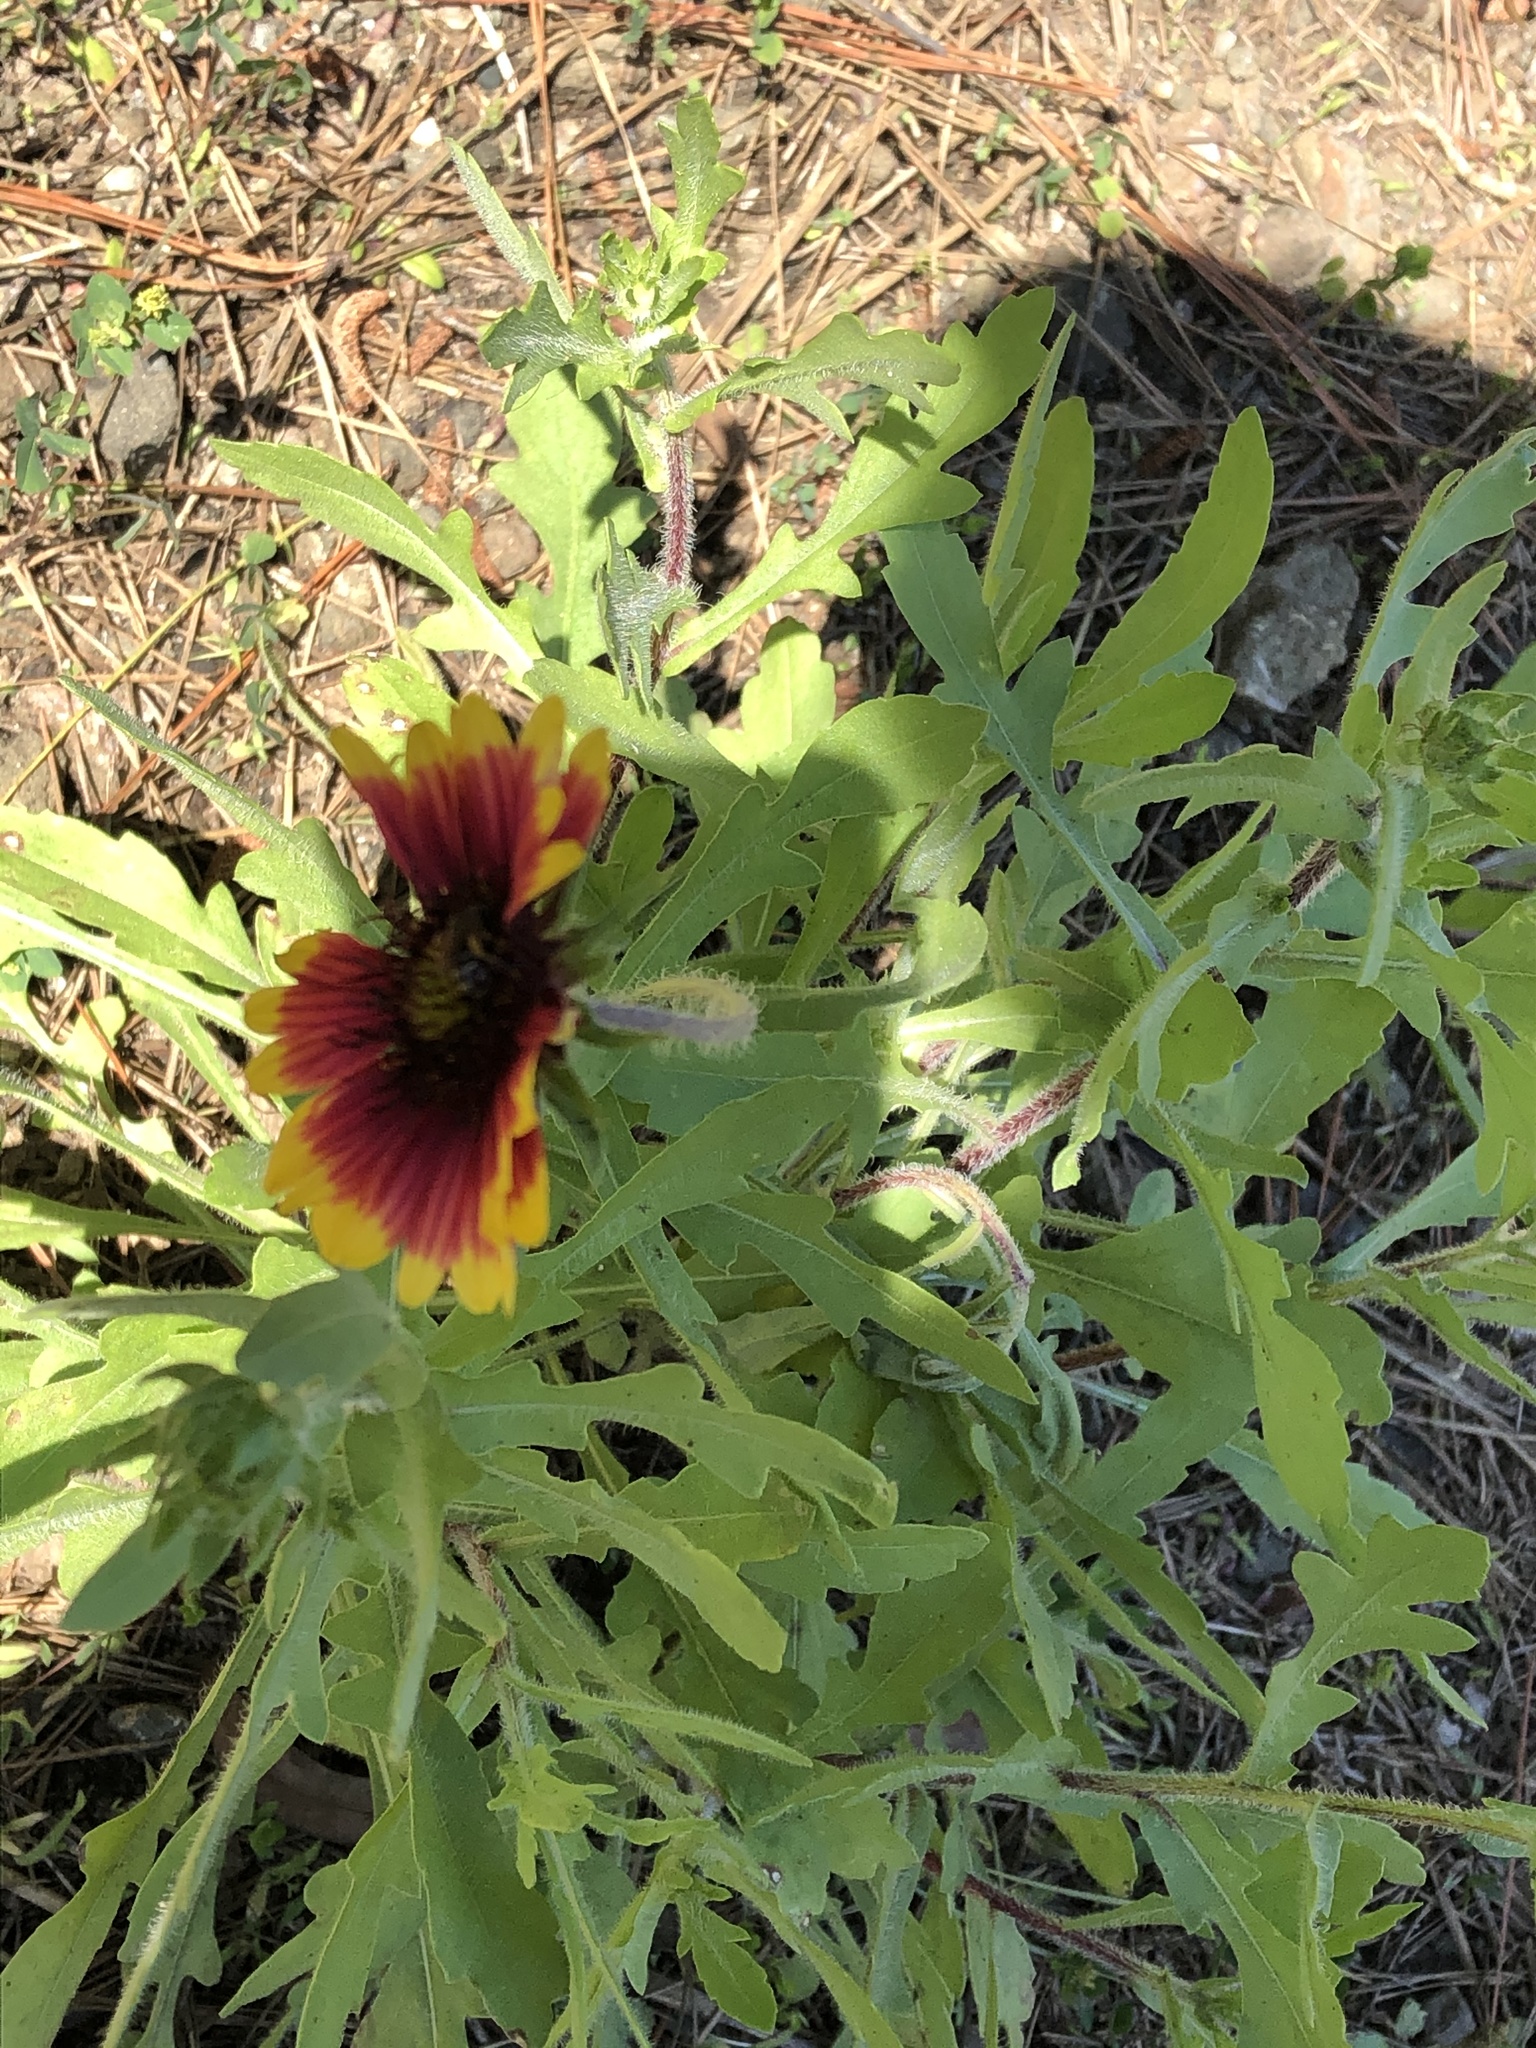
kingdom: Plantae
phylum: Tracheophyta
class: Magnoliopsida
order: Asterales
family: Asteraceae
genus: Gaillardia
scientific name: Gaillardia pulchella
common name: Firewheel
